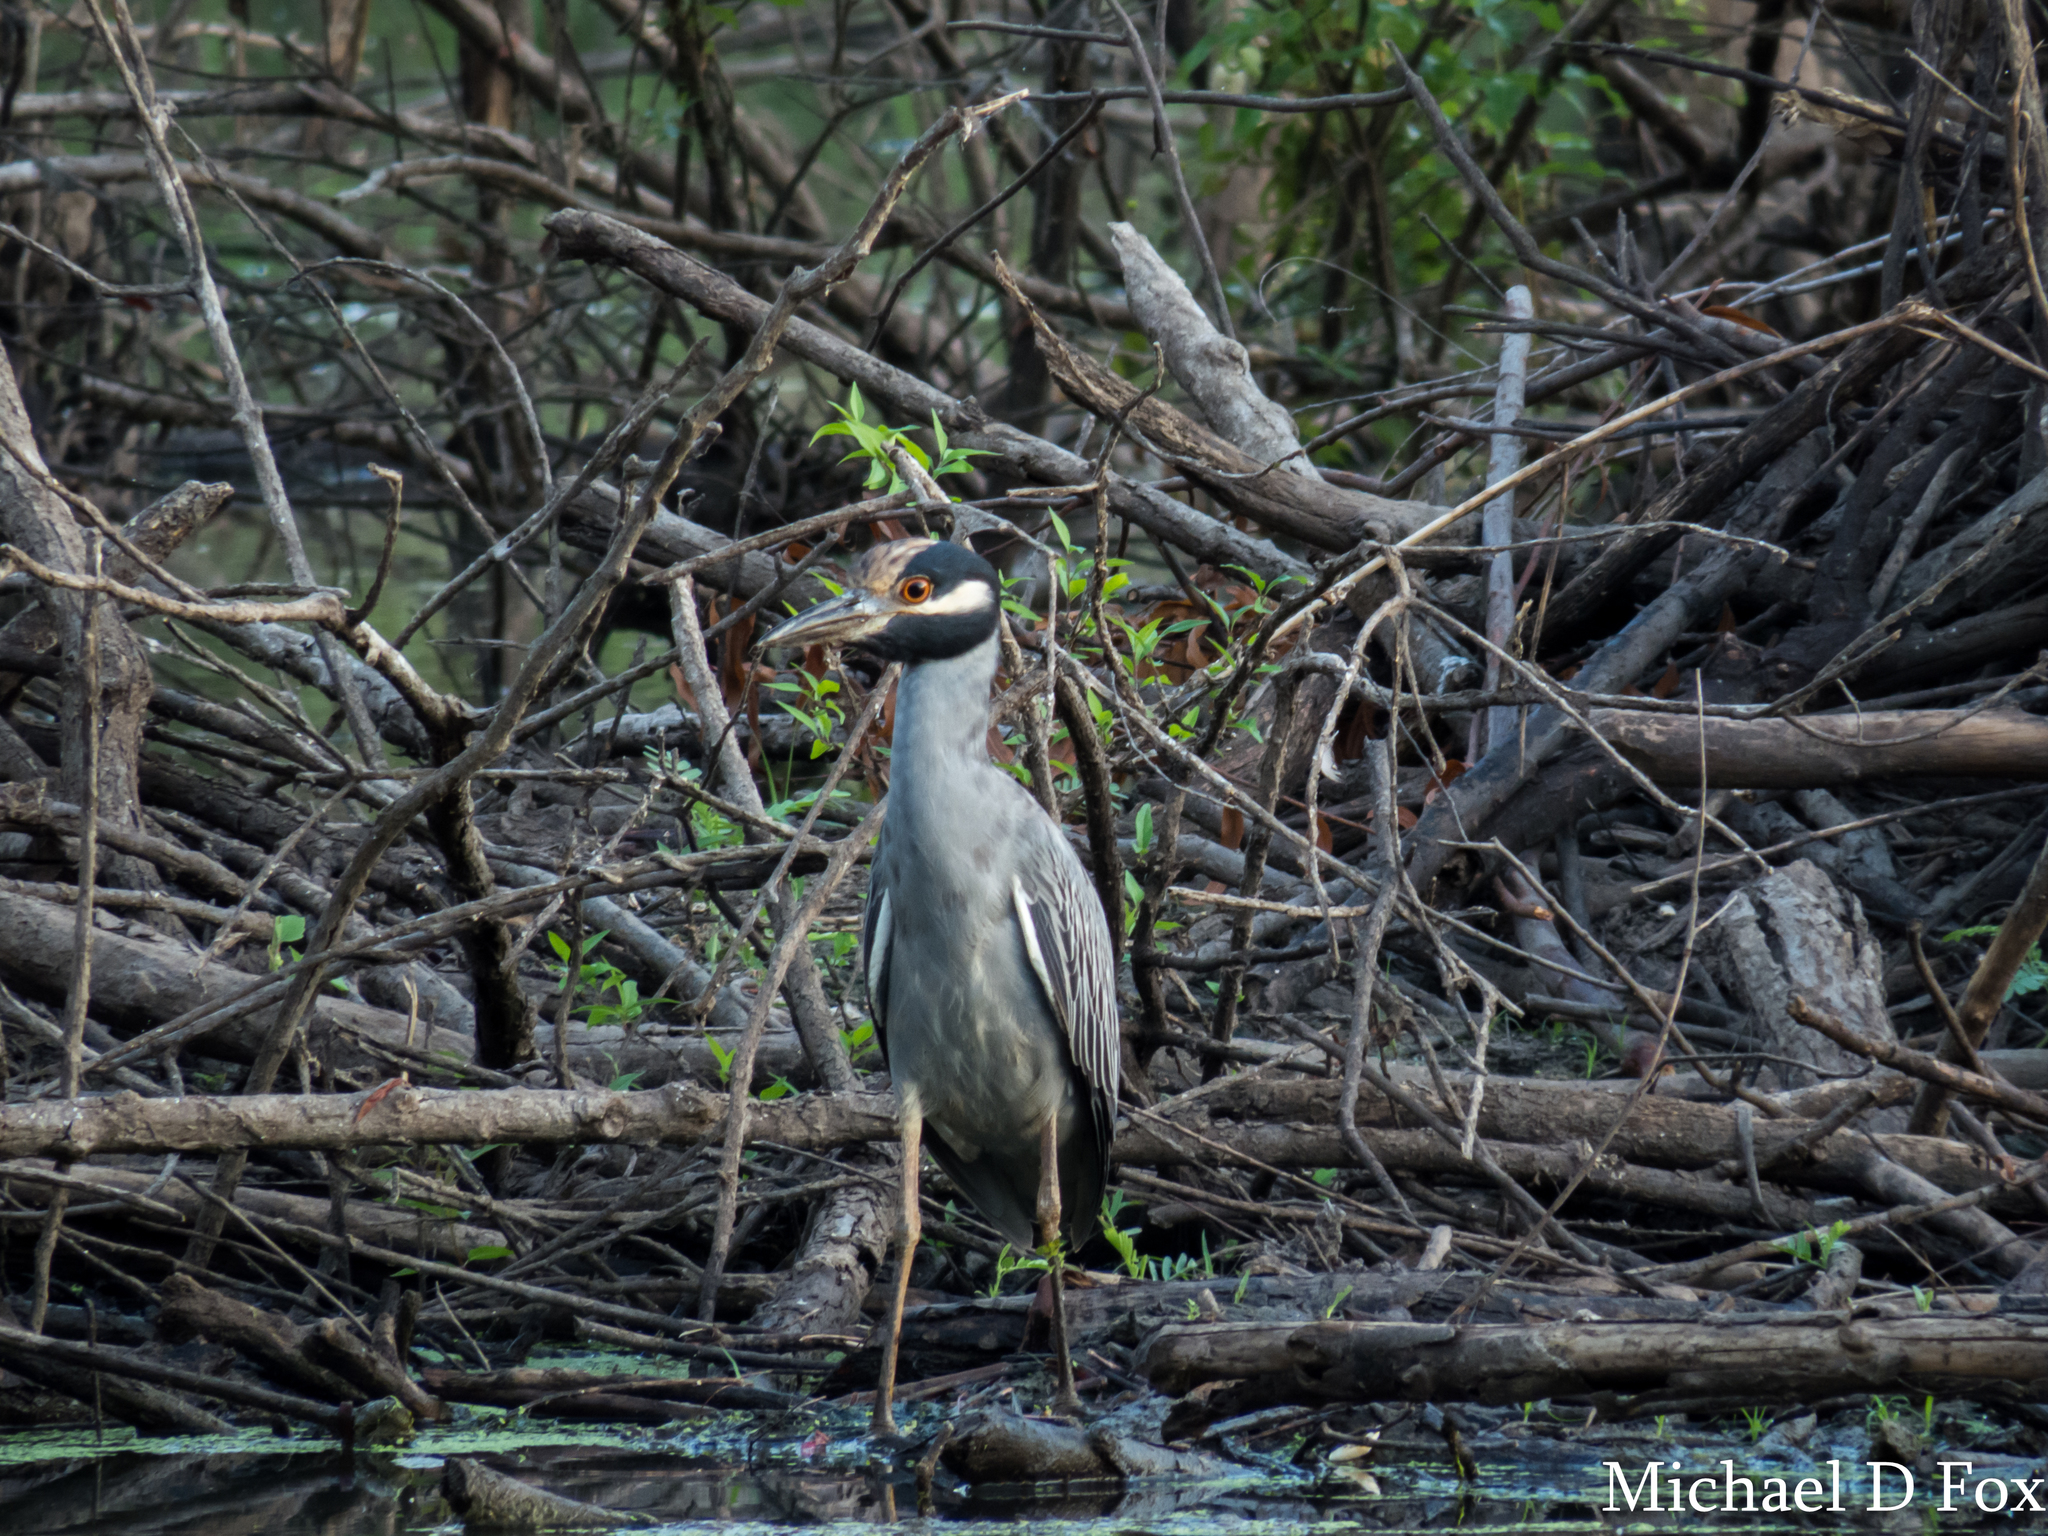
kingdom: Animalia
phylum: Chordata
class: Aves
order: Pelecaniformes
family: Ardeidae
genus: Nyctanassa
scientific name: Nyctanassa violacea
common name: Yellow-crowned night heron
